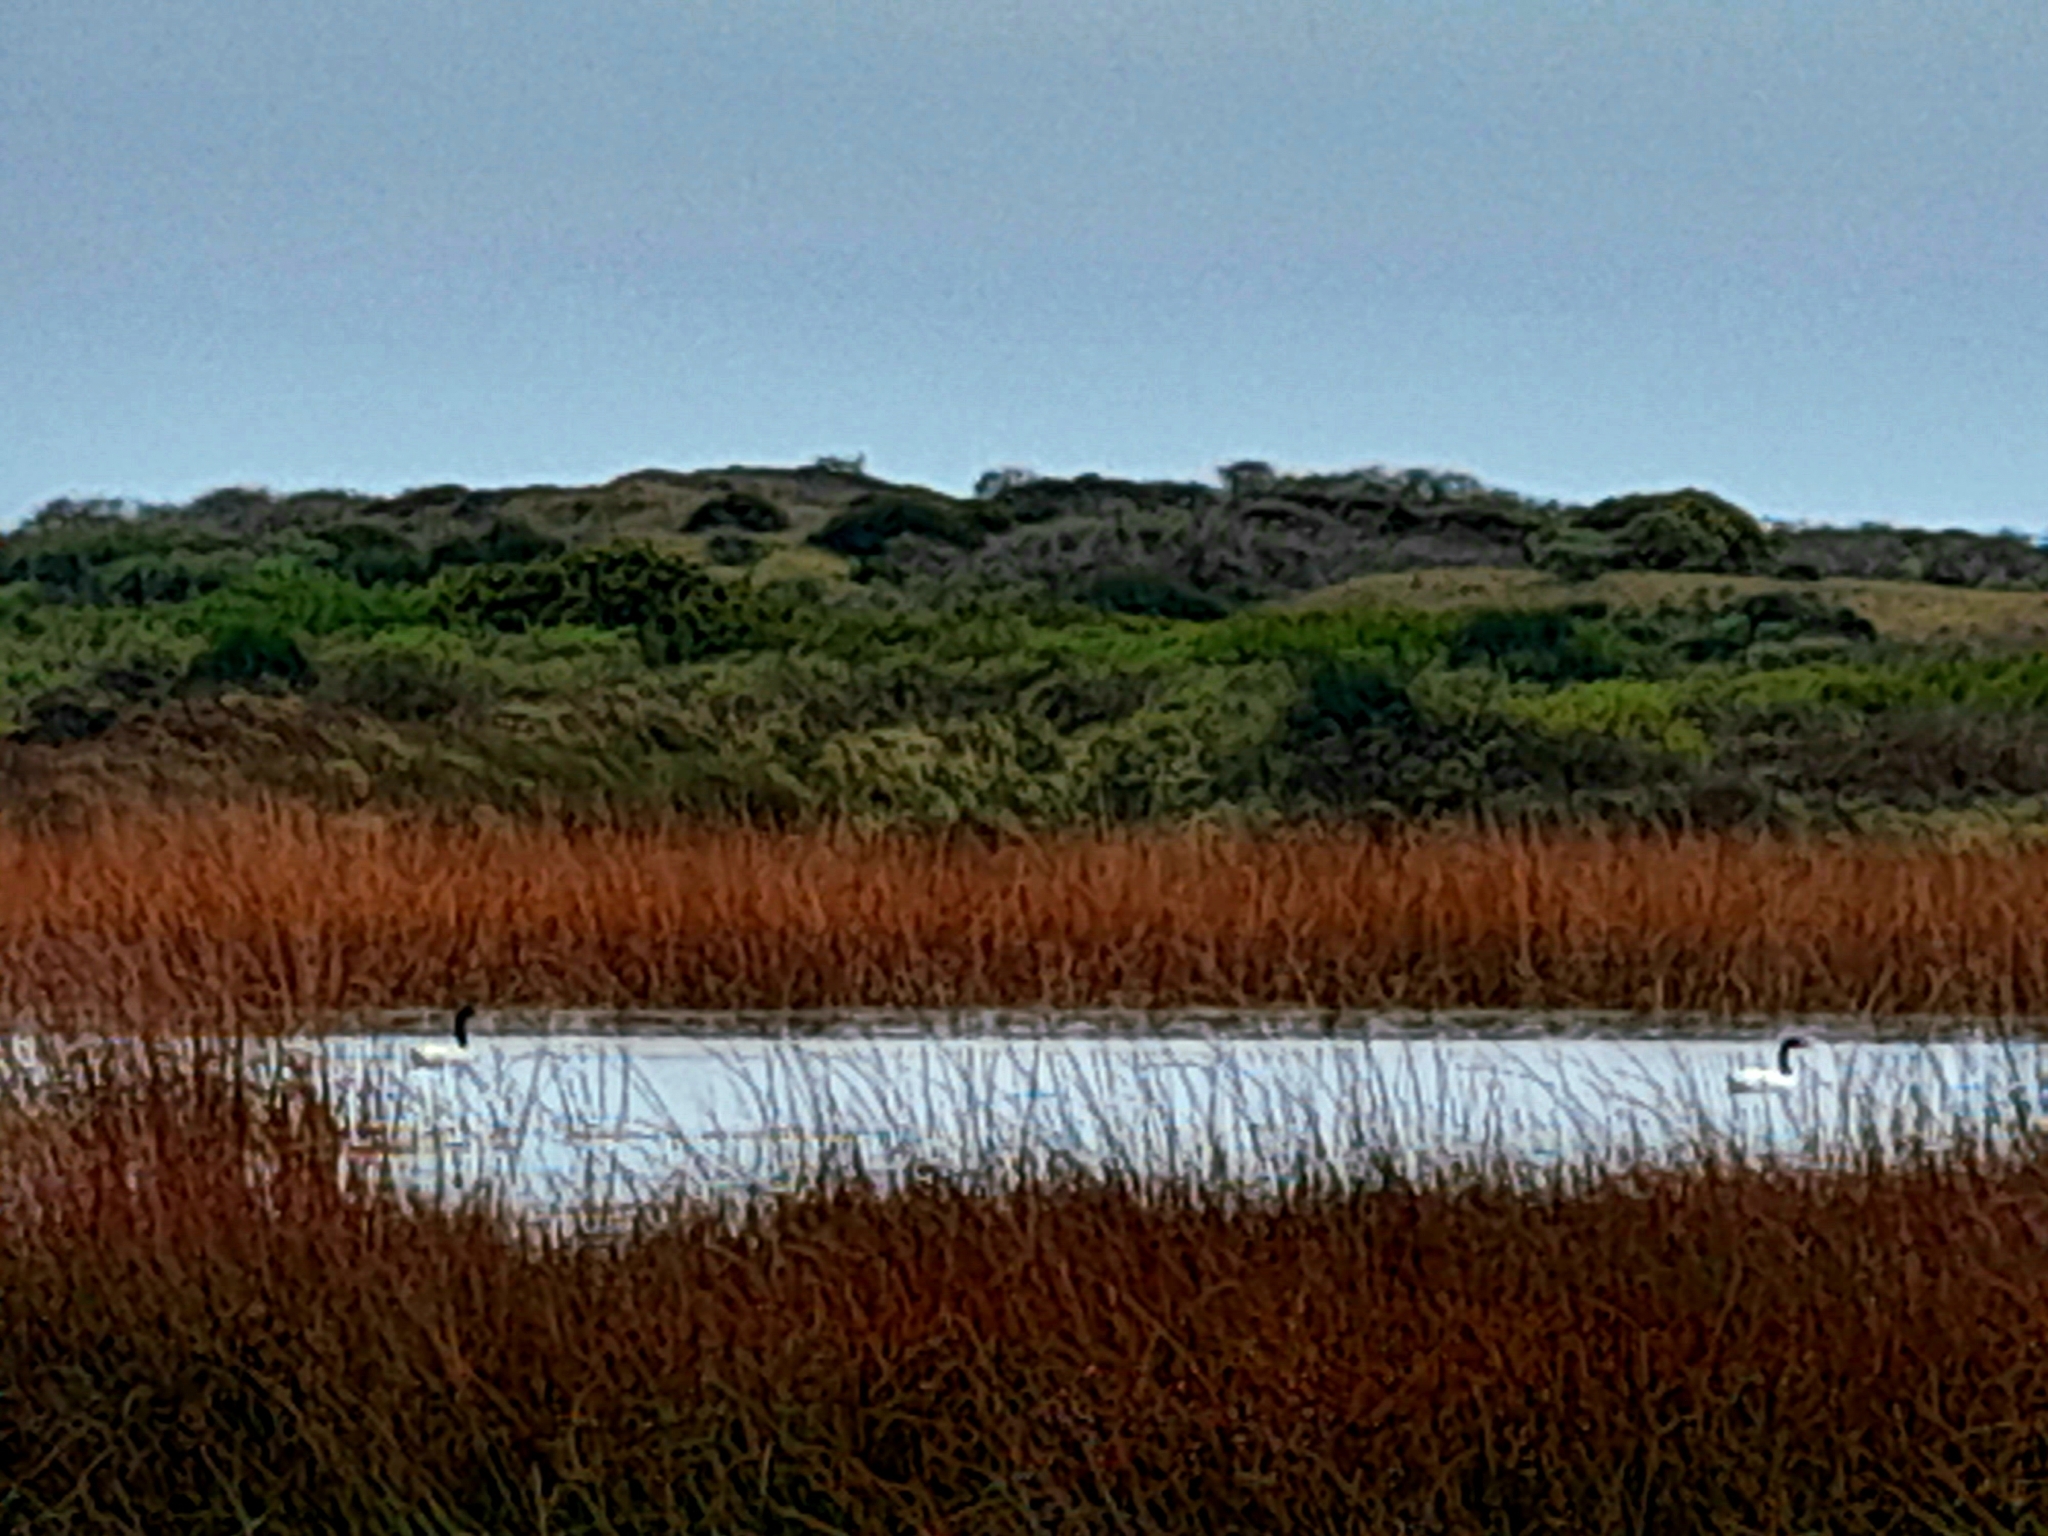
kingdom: Animalia
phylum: Chordata
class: Aves
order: Anseriformes
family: Anatidae
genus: Cygnus
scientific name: Cygnus melancoryphus
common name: Black-necked swan
